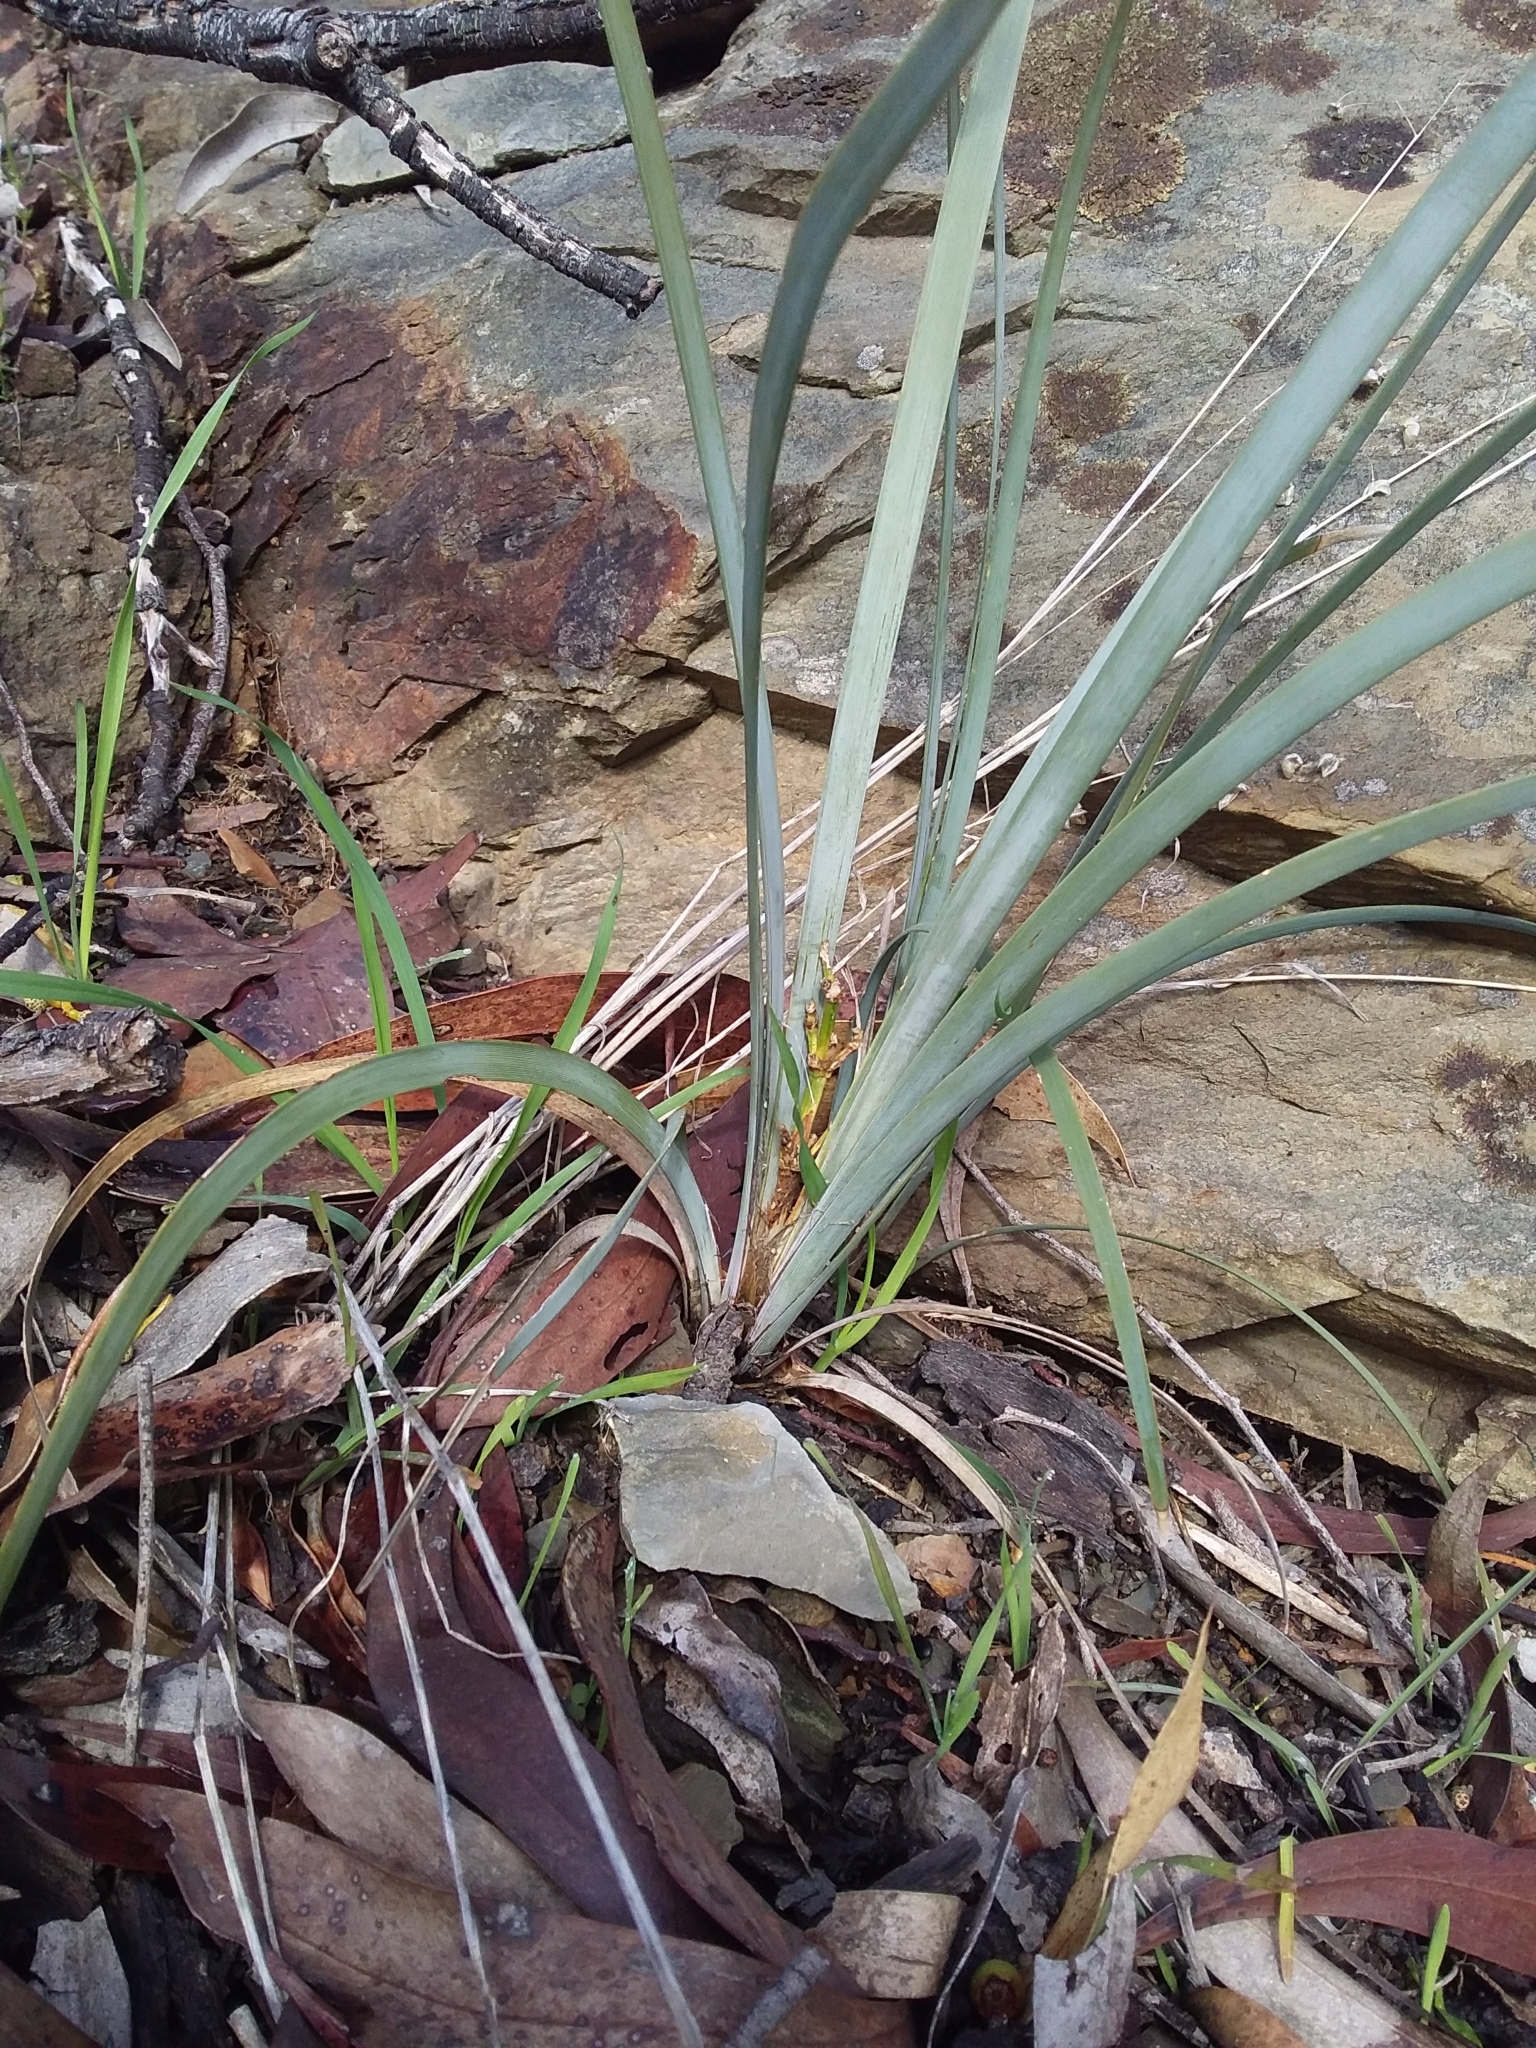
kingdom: Plantae
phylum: Tracheophyta
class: Liliopsida
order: Asparagales
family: Asparagaceae
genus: Lomandra
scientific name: Lomandra multiflora
